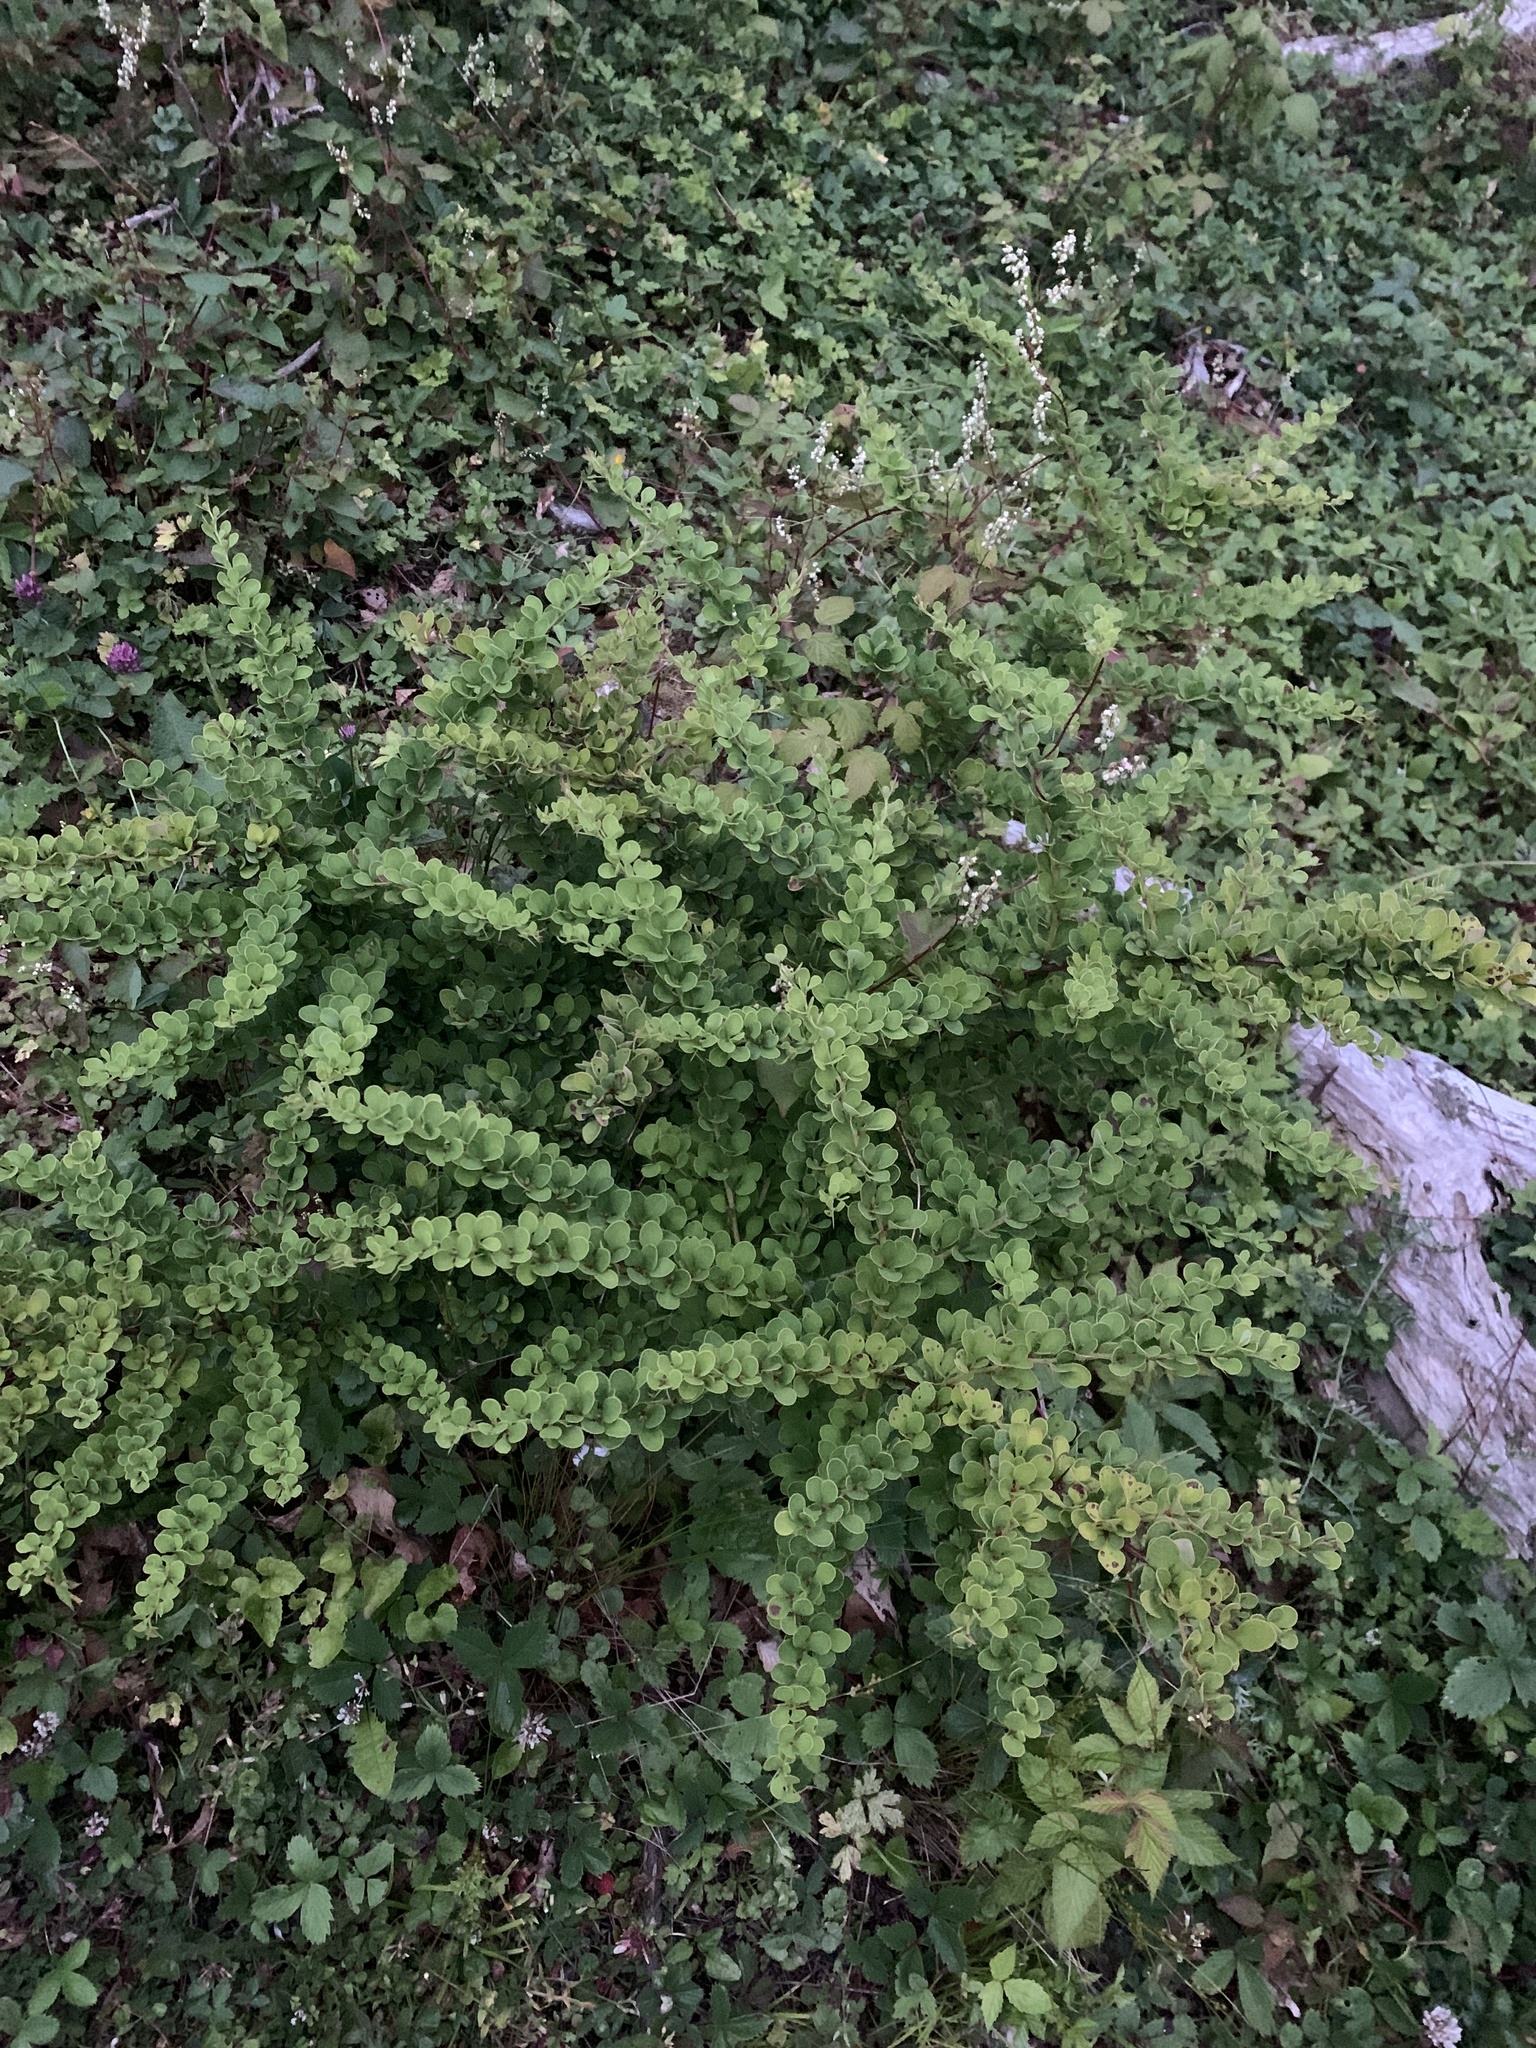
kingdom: Plantae
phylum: Tracheophyta
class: Magnoliopsida
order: Ranunculales
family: Berberidaceae
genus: Berberis
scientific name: Berberis thunbergii
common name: Japanese barberry
